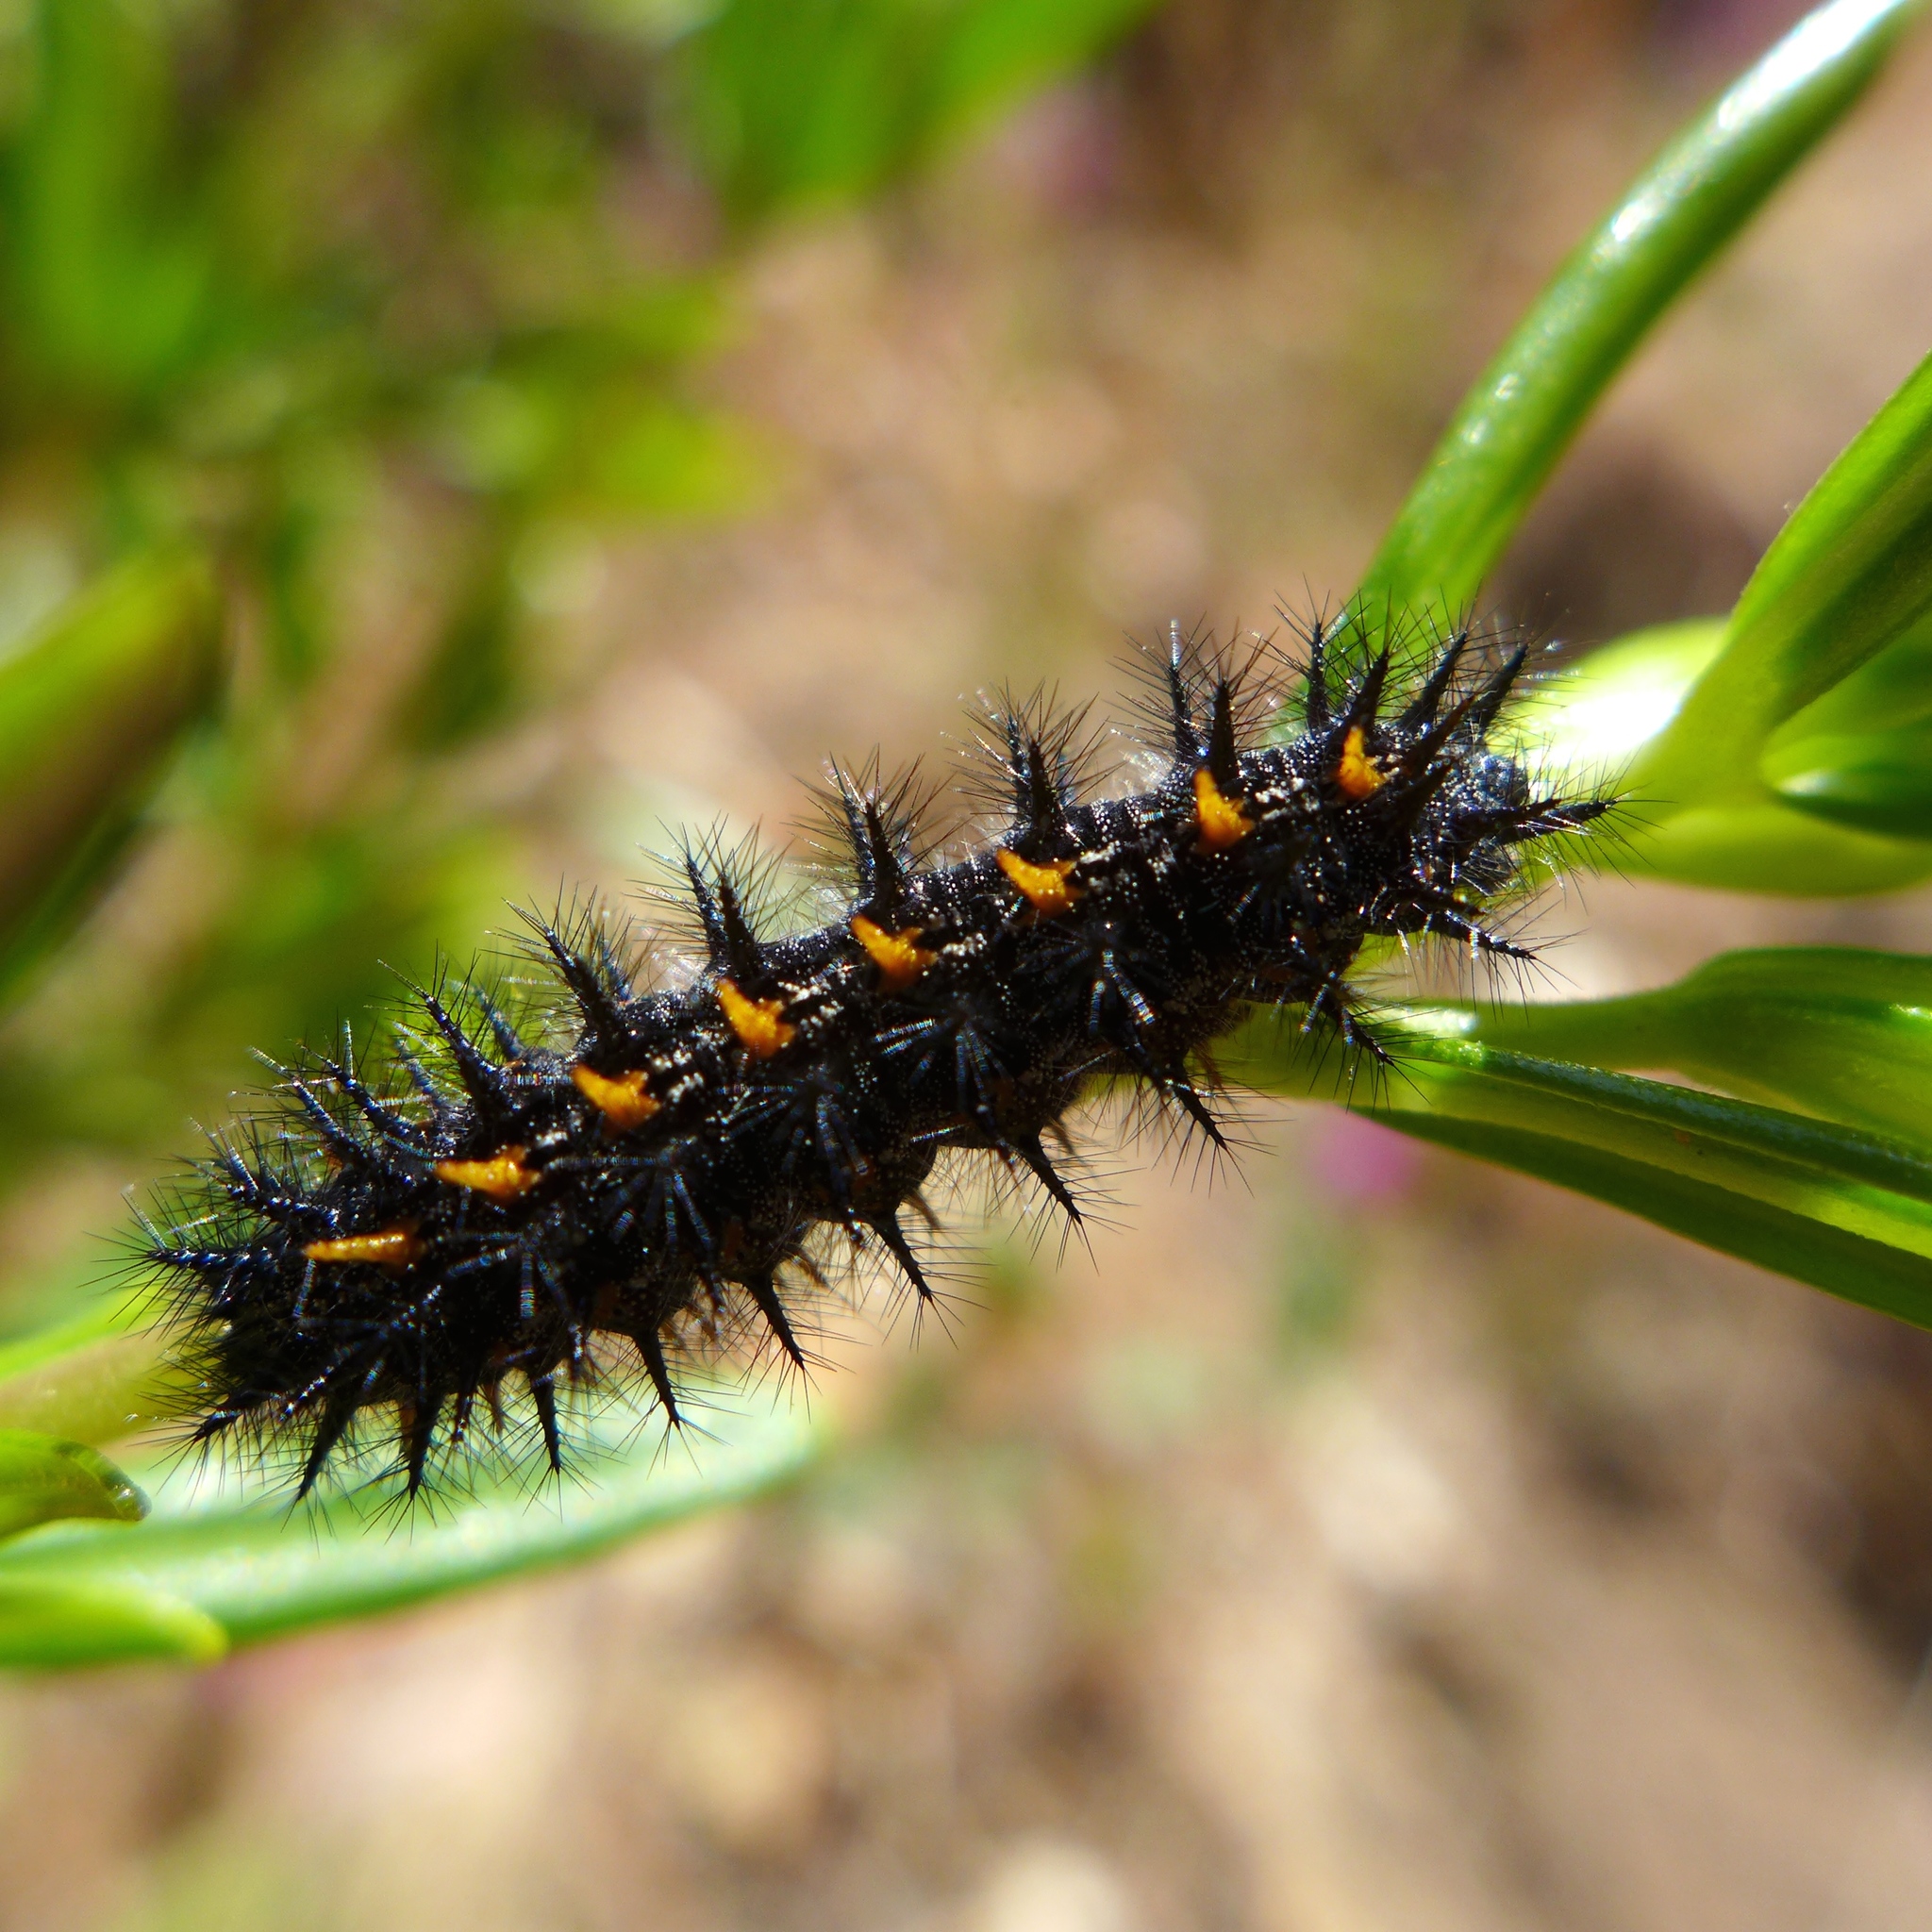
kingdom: Animalia
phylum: Arthropoda
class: Insecta
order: Lepidoptera
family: Nymphalidae
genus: Occidryas
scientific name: Occidryas chalcedona
